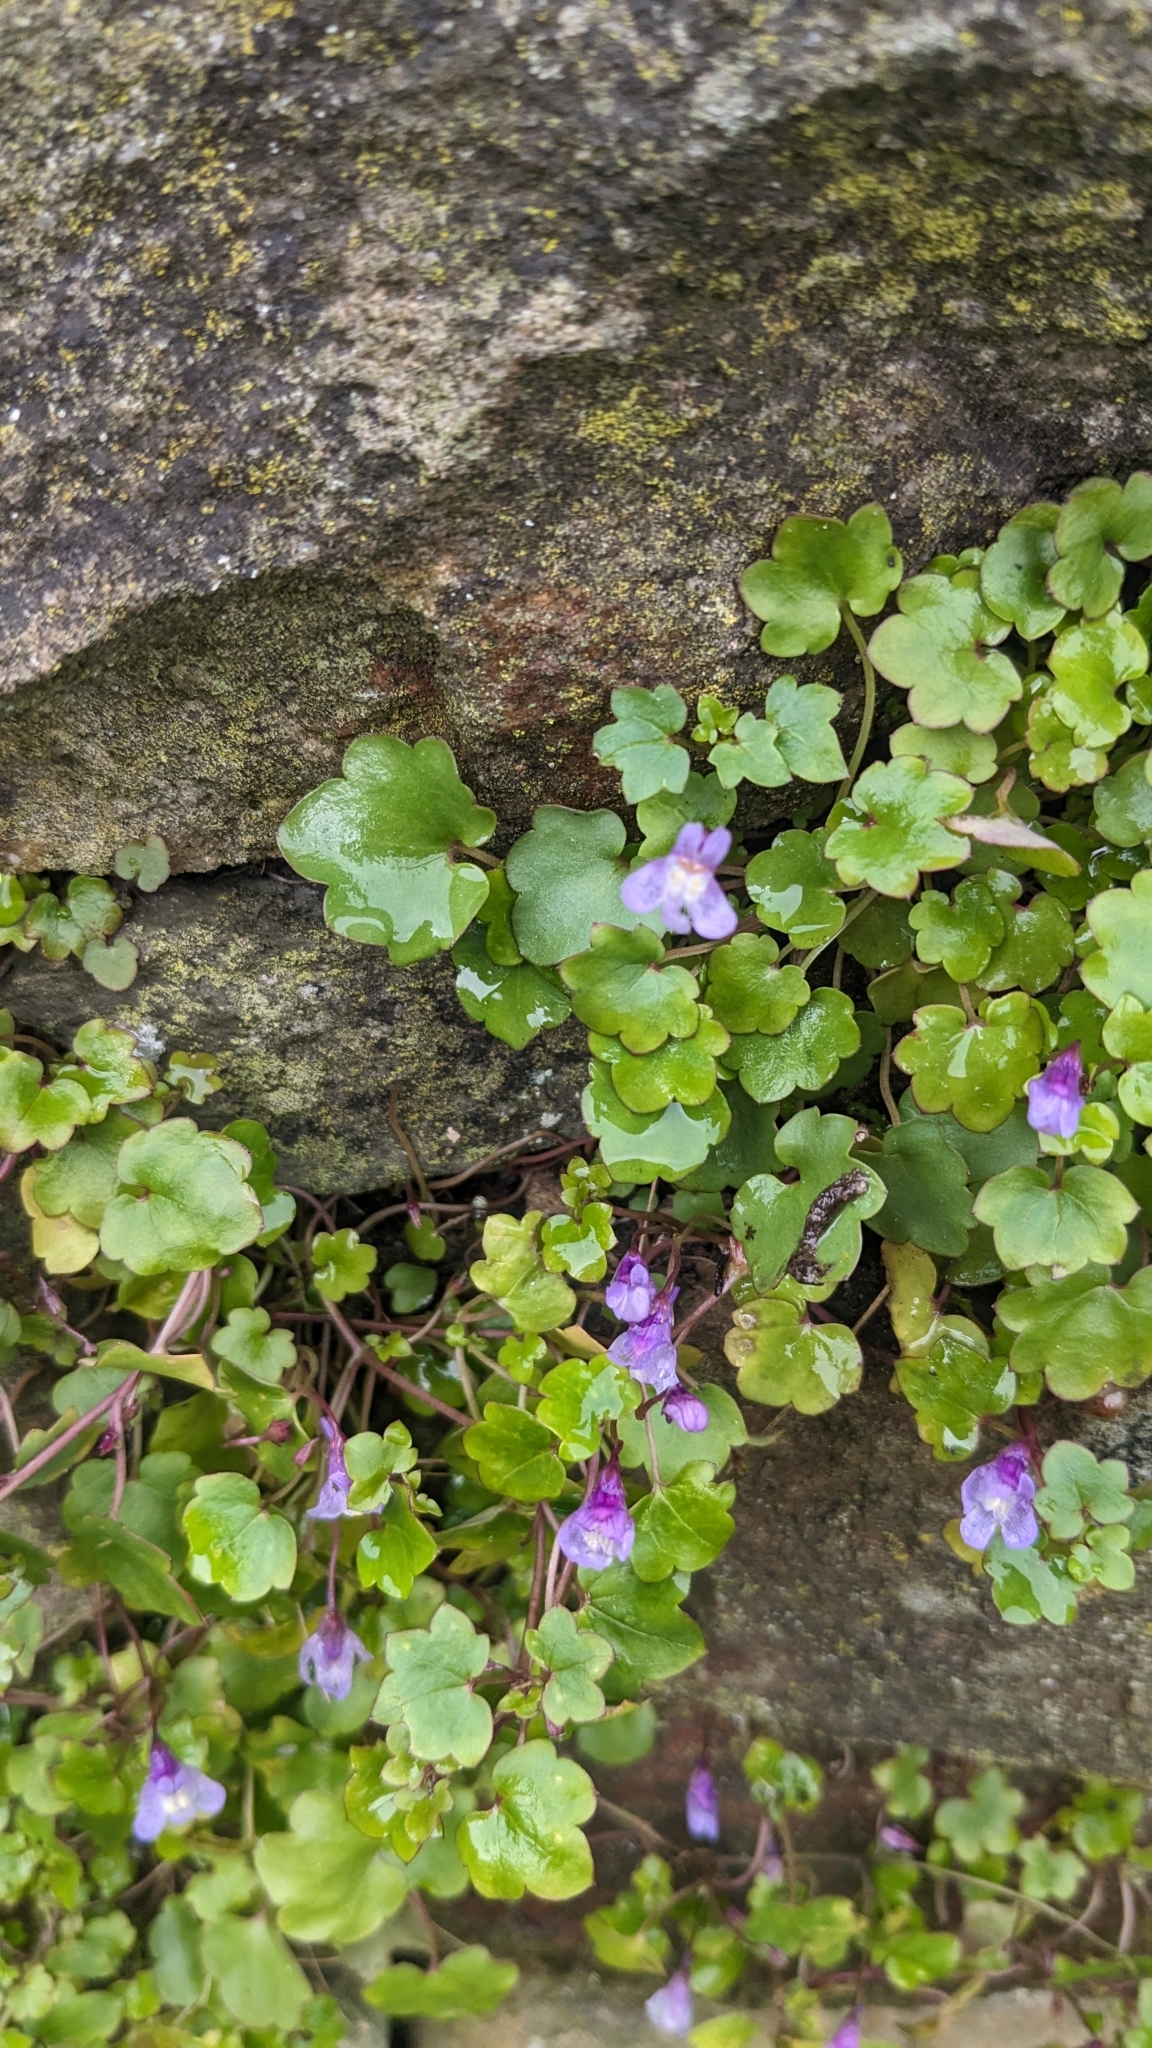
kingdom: Plantae
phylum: Tracheophyta
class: Magnoliopsida
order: Lamiales
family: Plantaginaceae
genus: Cymbalaria
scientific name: Cymbalaria muralis
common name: Ivy-leaved toadflax
